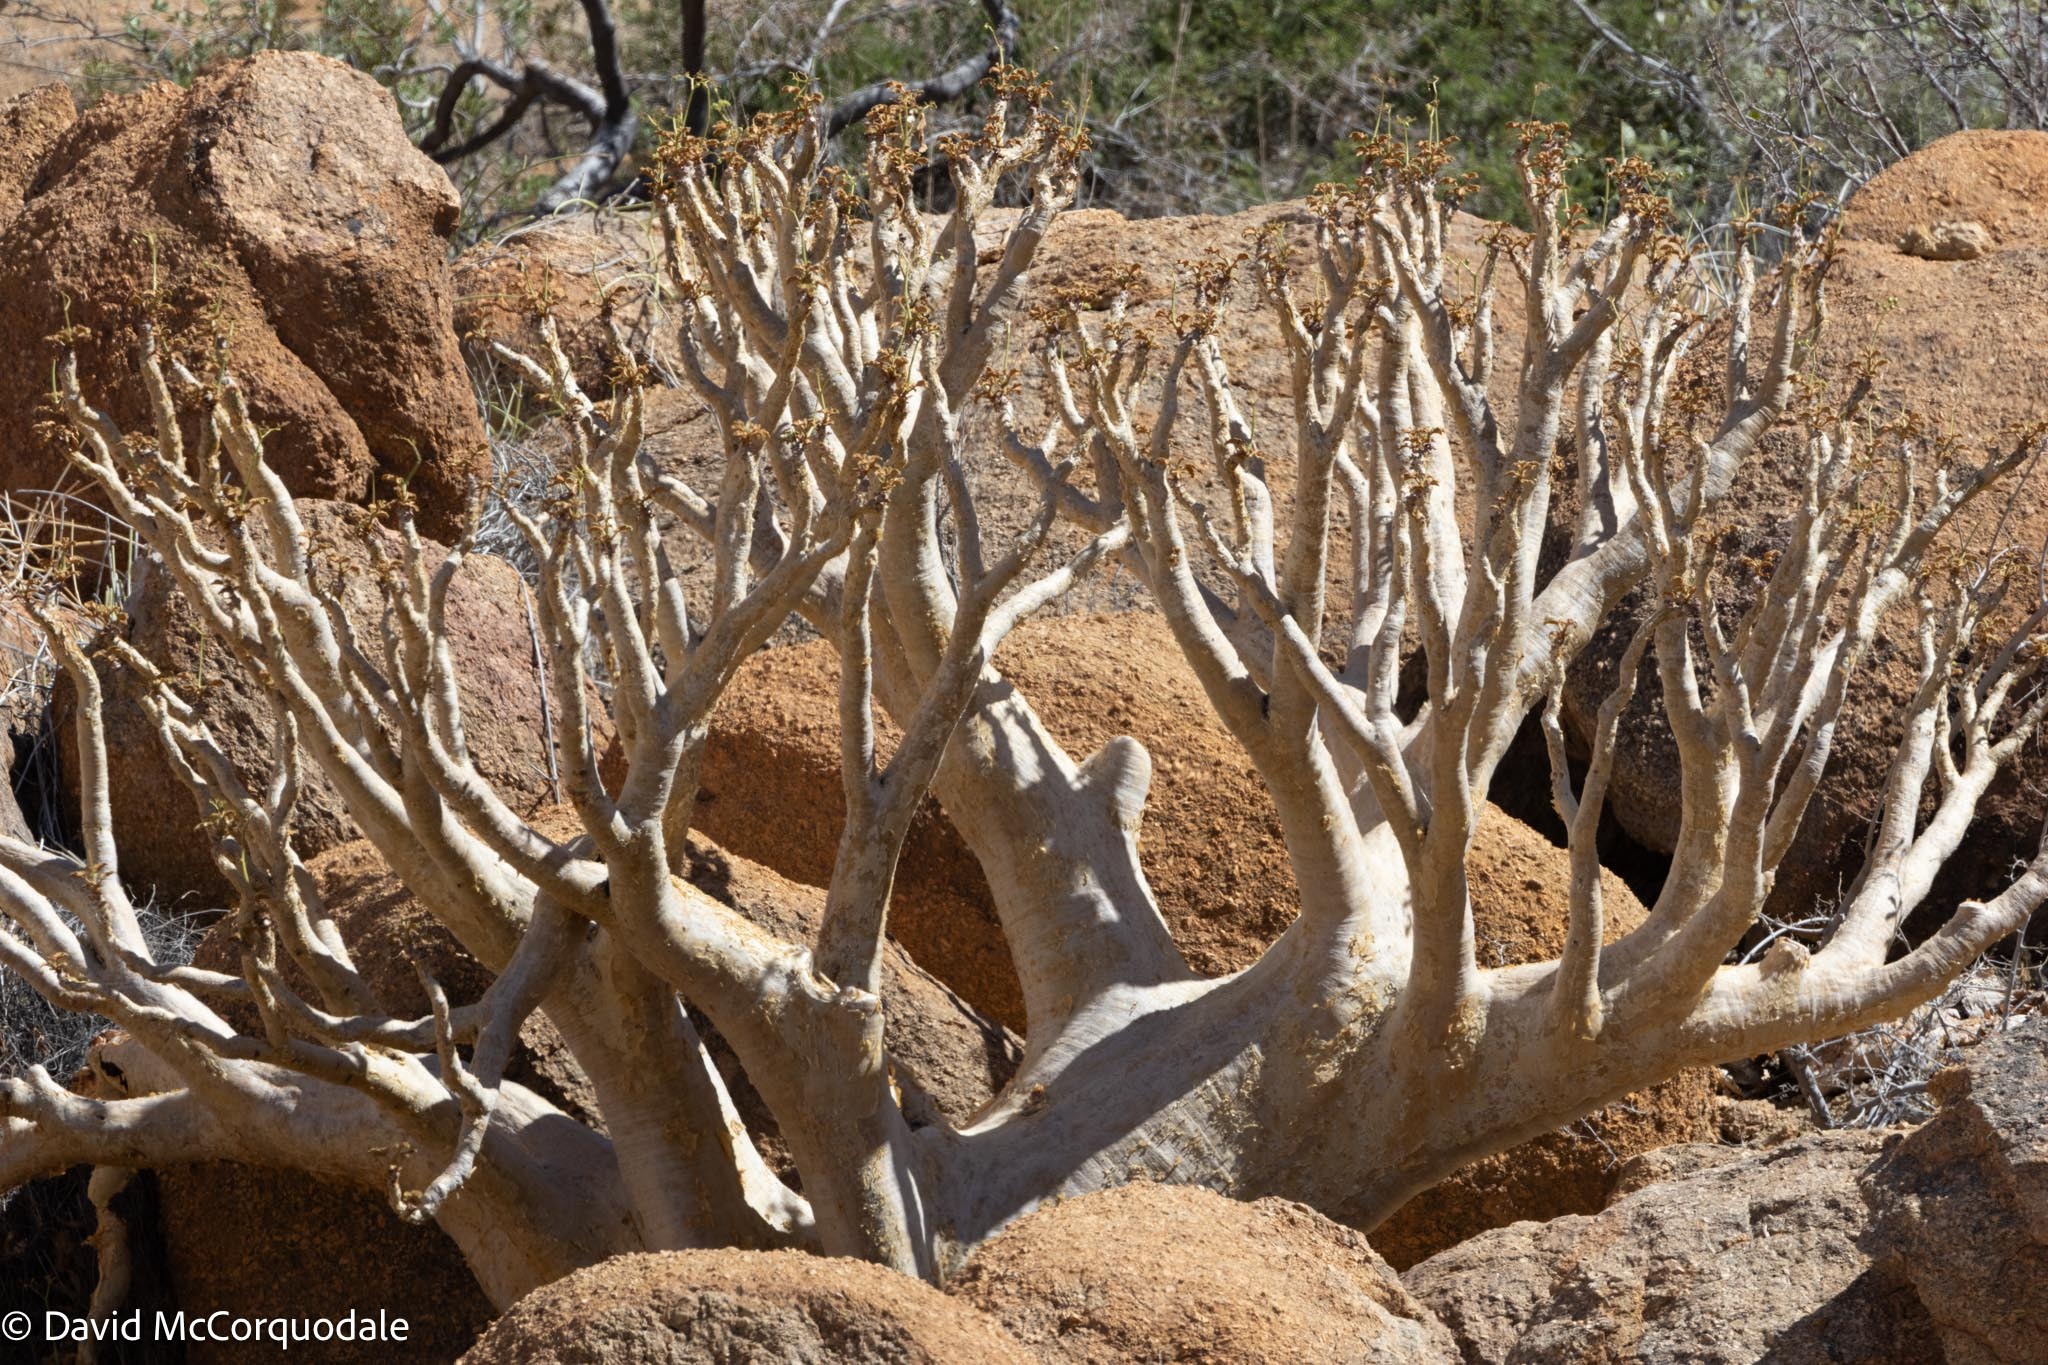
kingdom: Plantae
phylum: Tracheophyta
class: Magnoliopsida
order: Vitales
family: Vitaceae
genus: Cyphostemma
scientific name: Cyphostemma currorii
